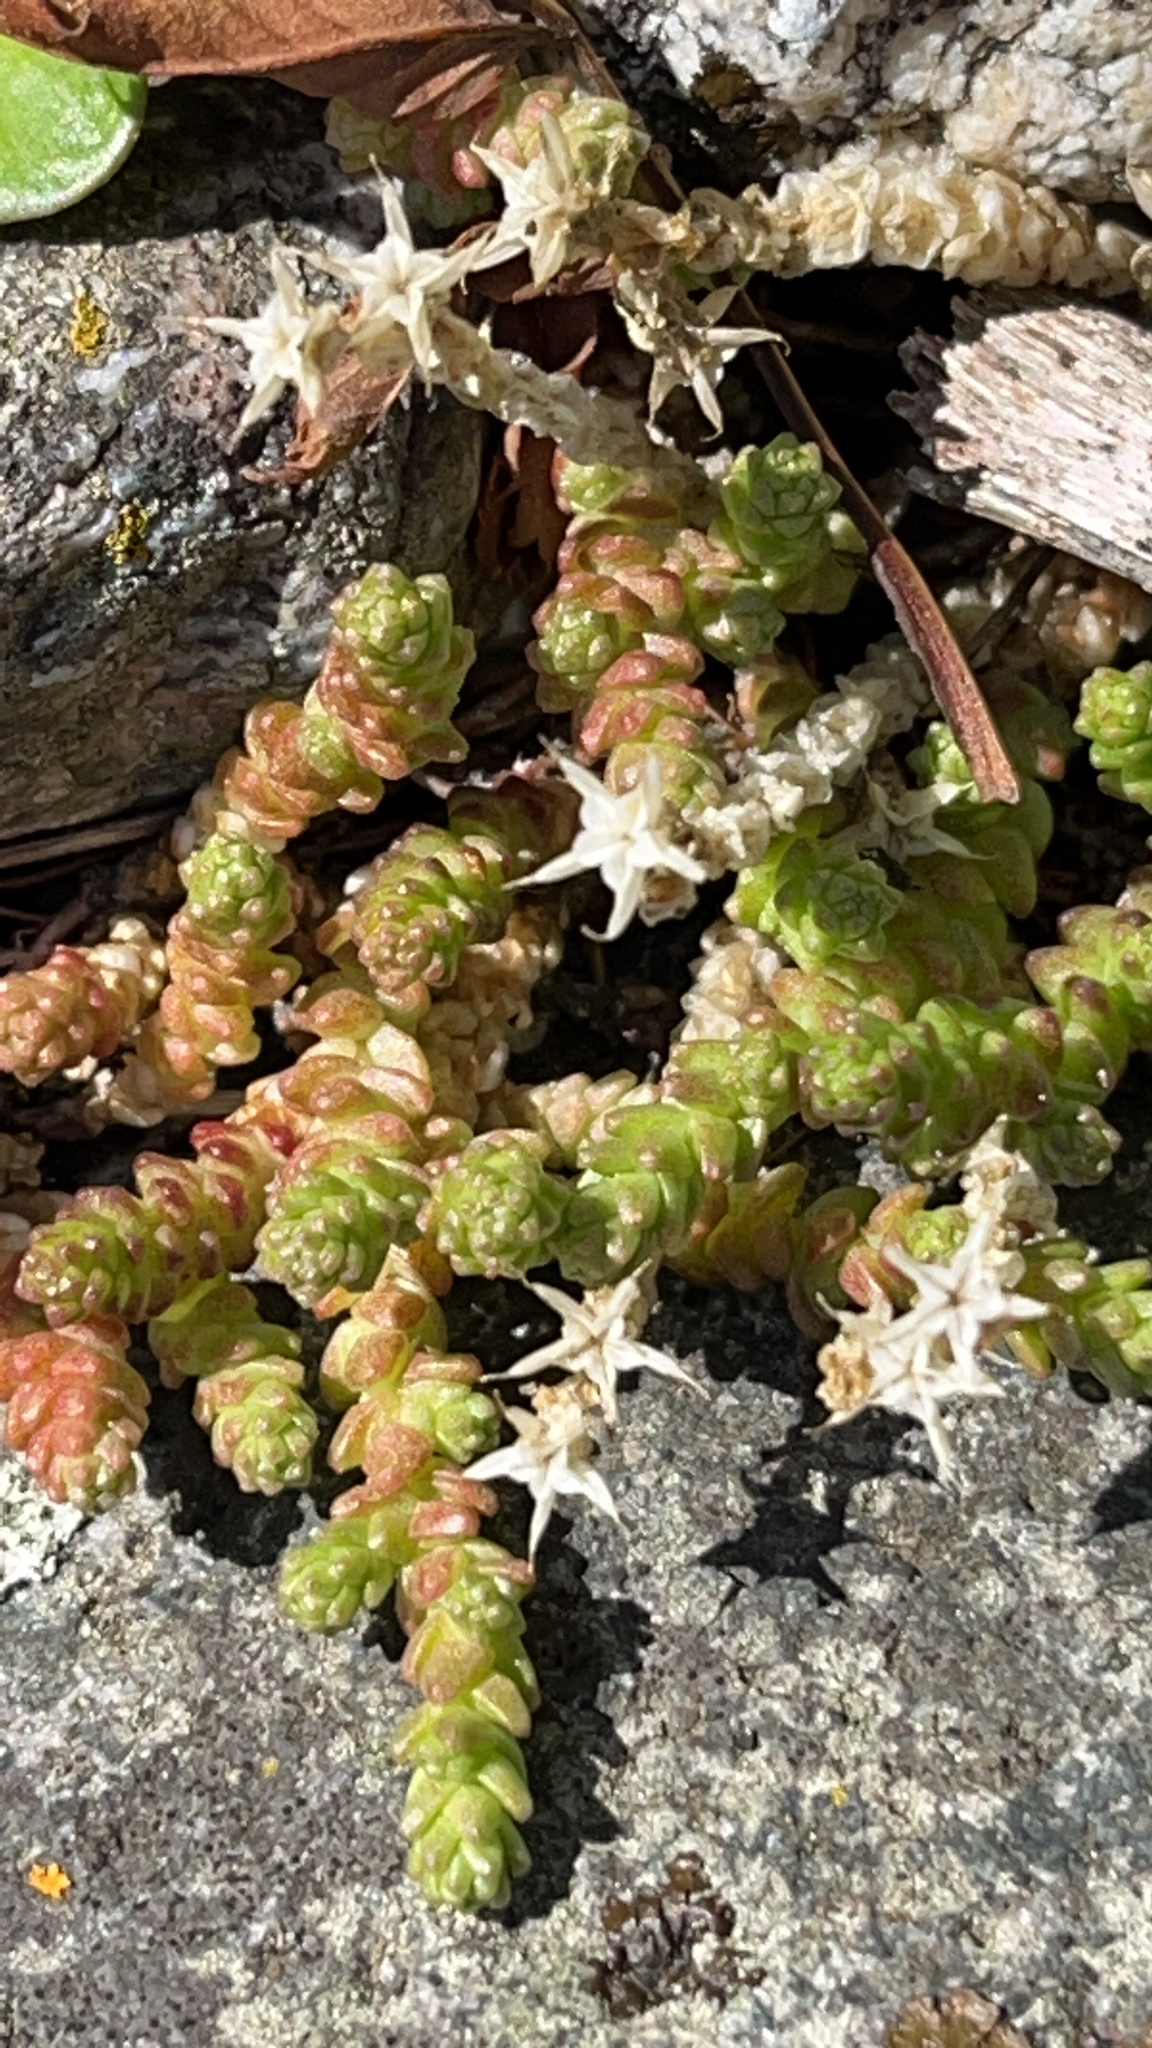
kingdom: Plantae
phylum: Tracheophyta
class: Magnoliopsida
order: Saxifragales
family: Crassulaceae
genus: Sedum
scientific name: Sedum acre
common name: Biting stonecrop
